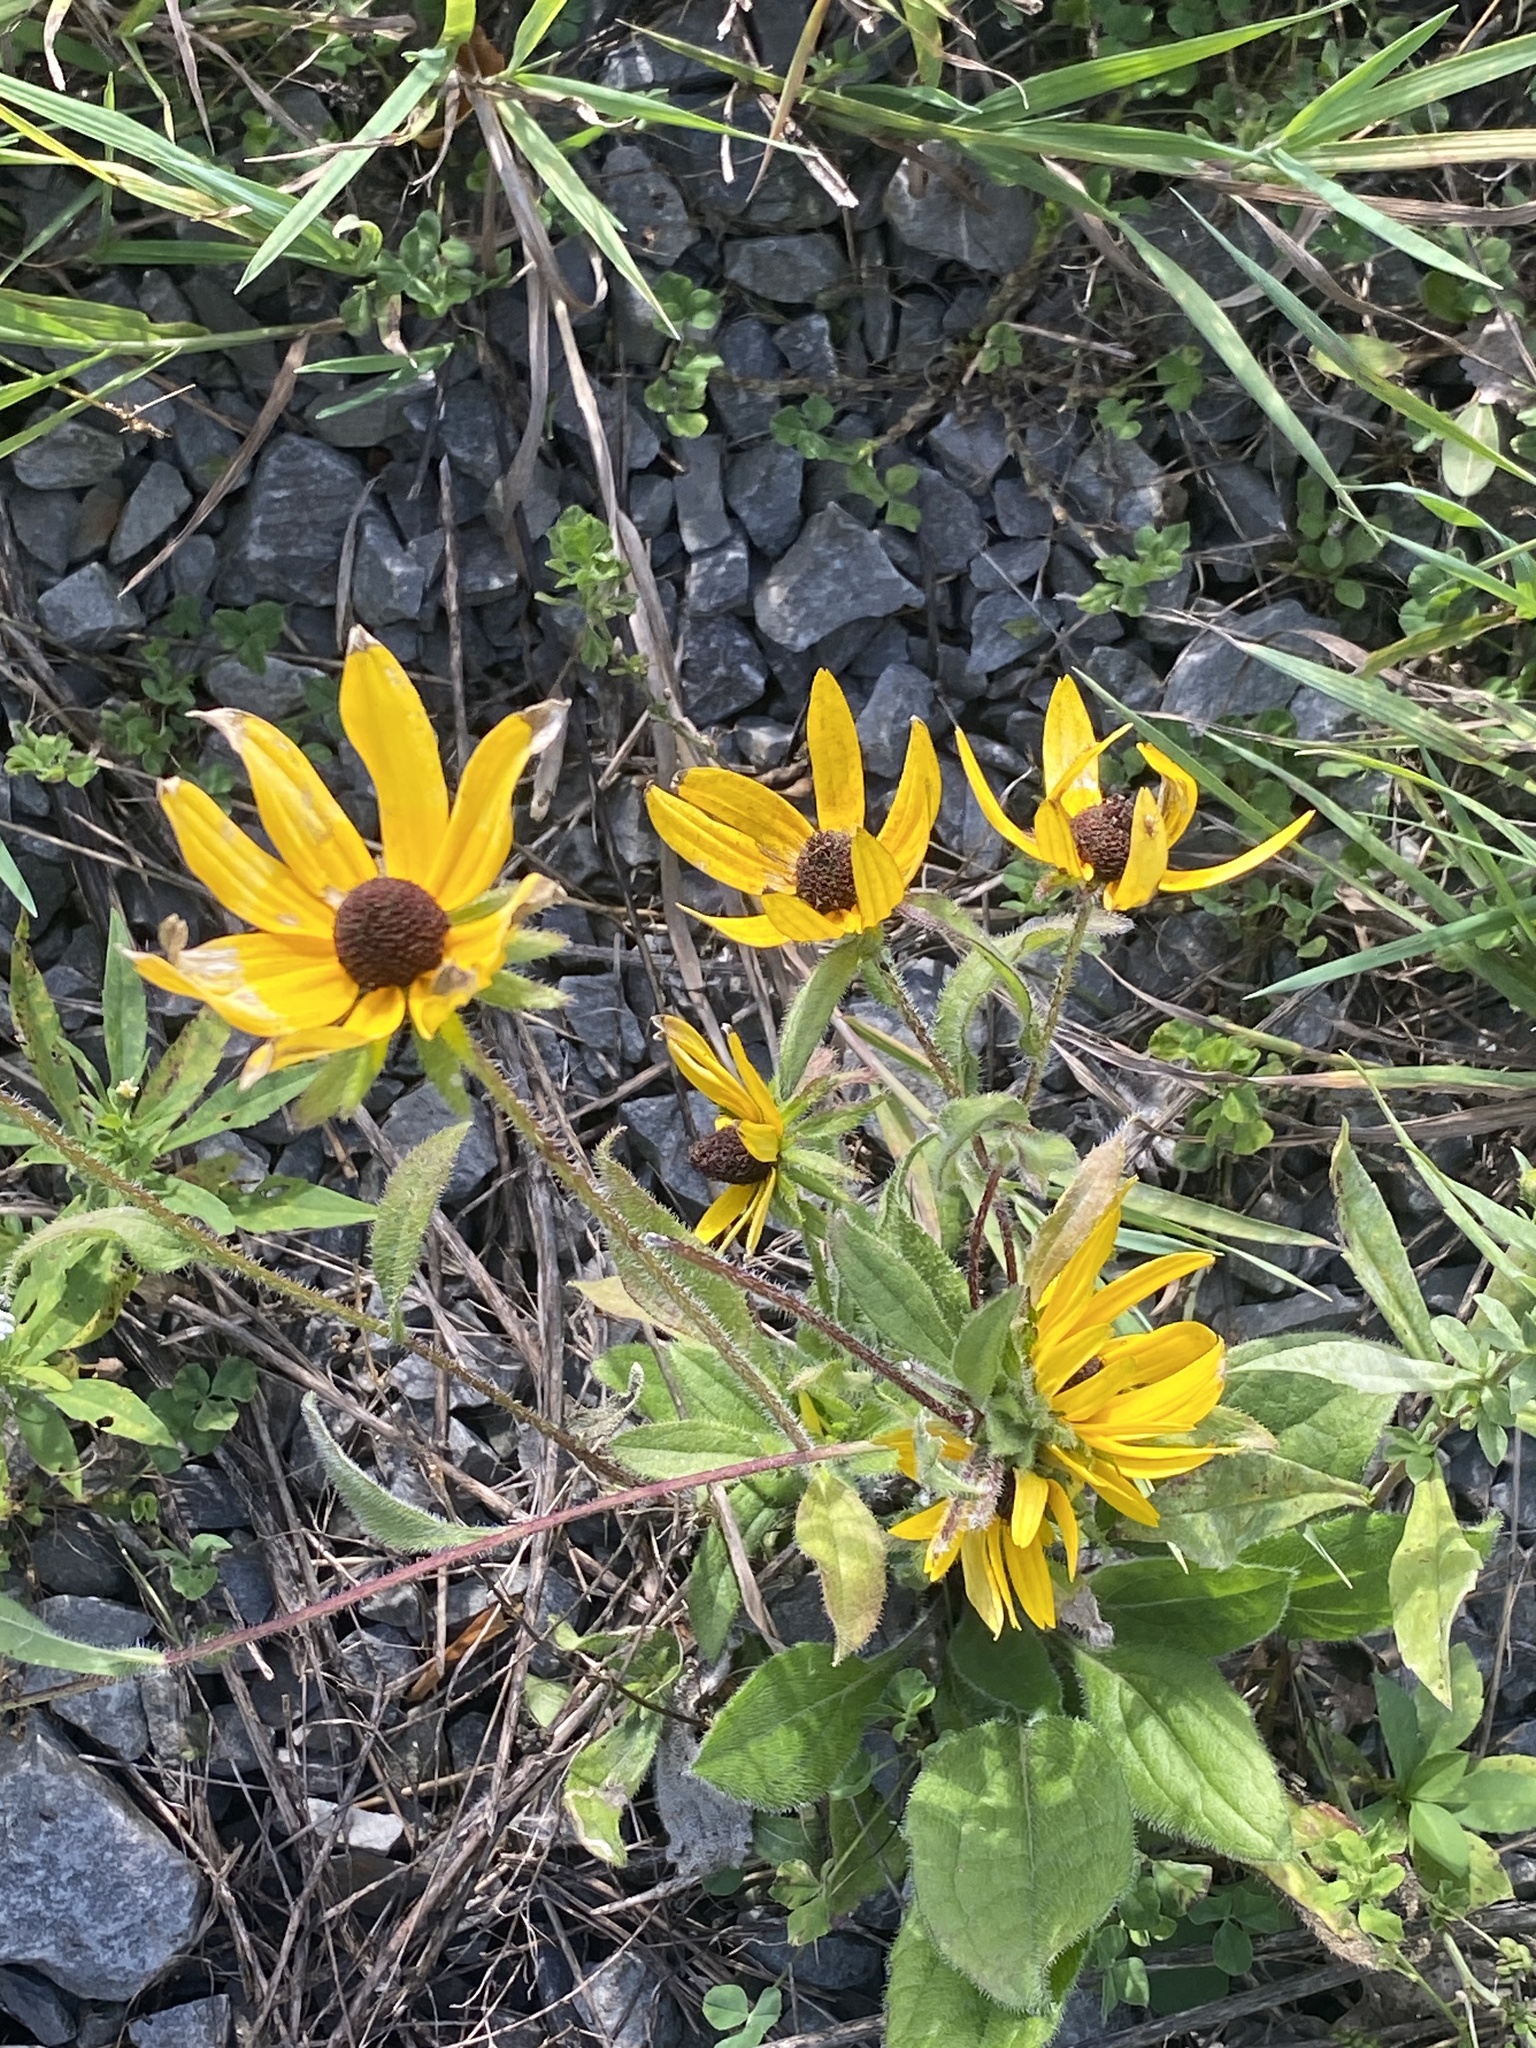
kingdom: Plantae
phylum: Tracheophyta
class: Magnoliopsida
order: Asterales
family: Asteraceae
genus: Rudbeckia
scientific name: Rudbeckia hirta
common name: Black-eyed-susan
